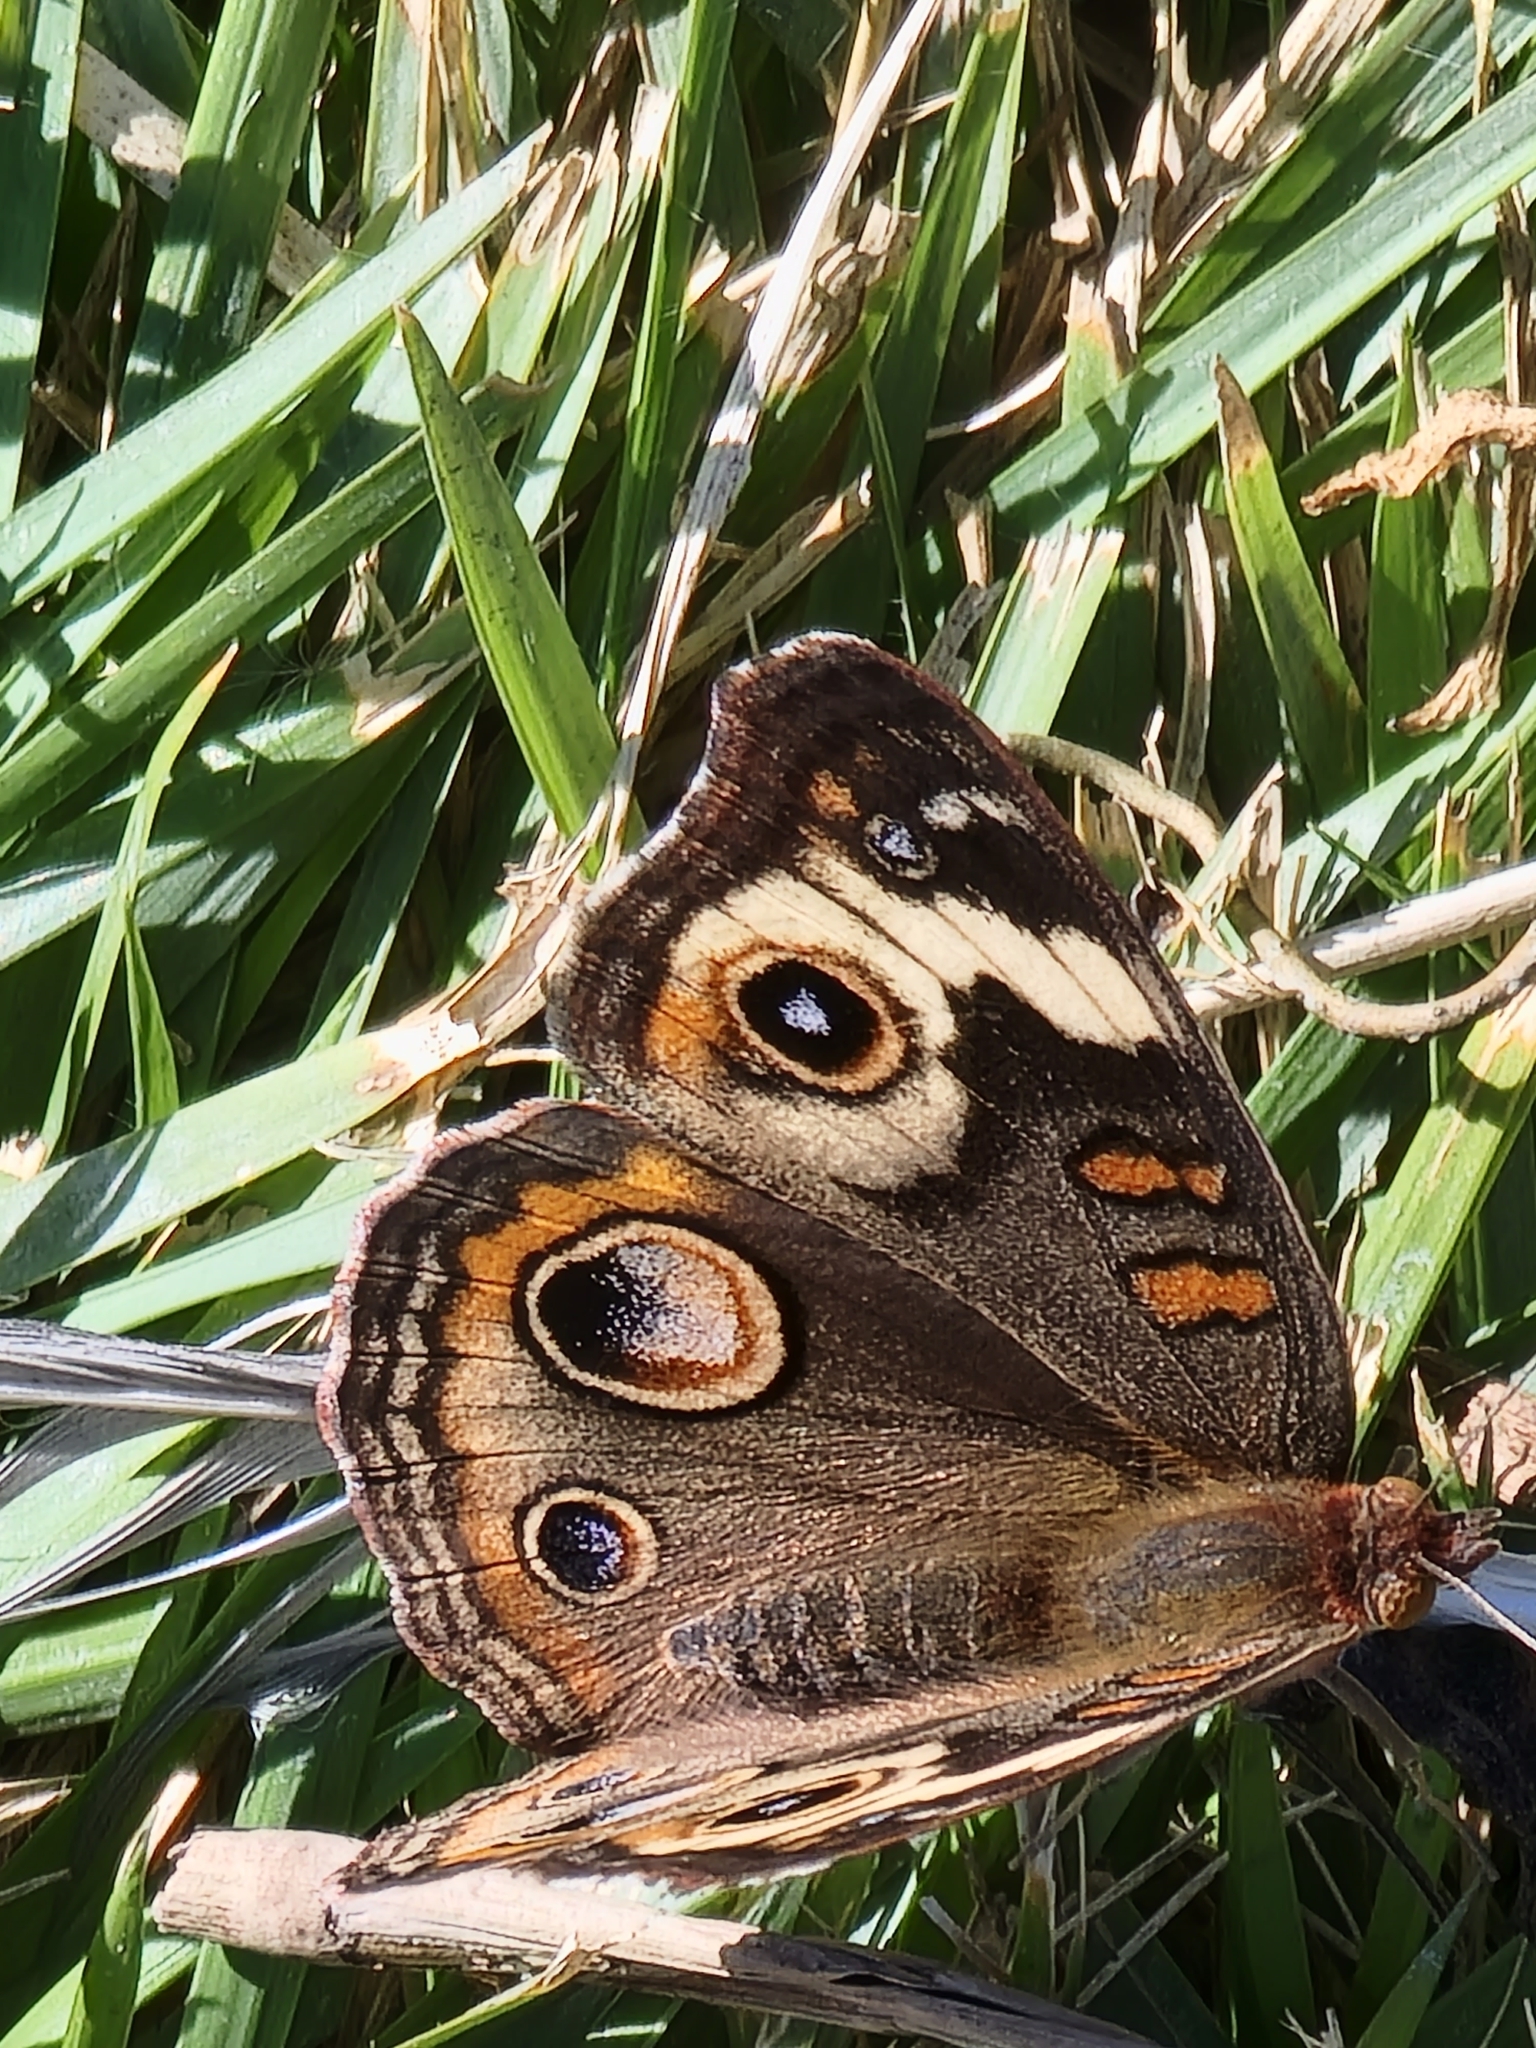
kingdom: Animalia
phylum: Arthropoda
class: Insecta
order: Lepidoptera
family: Nymphalidae
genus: Junonia
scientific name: Junonia coenia
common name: Common buckeye
